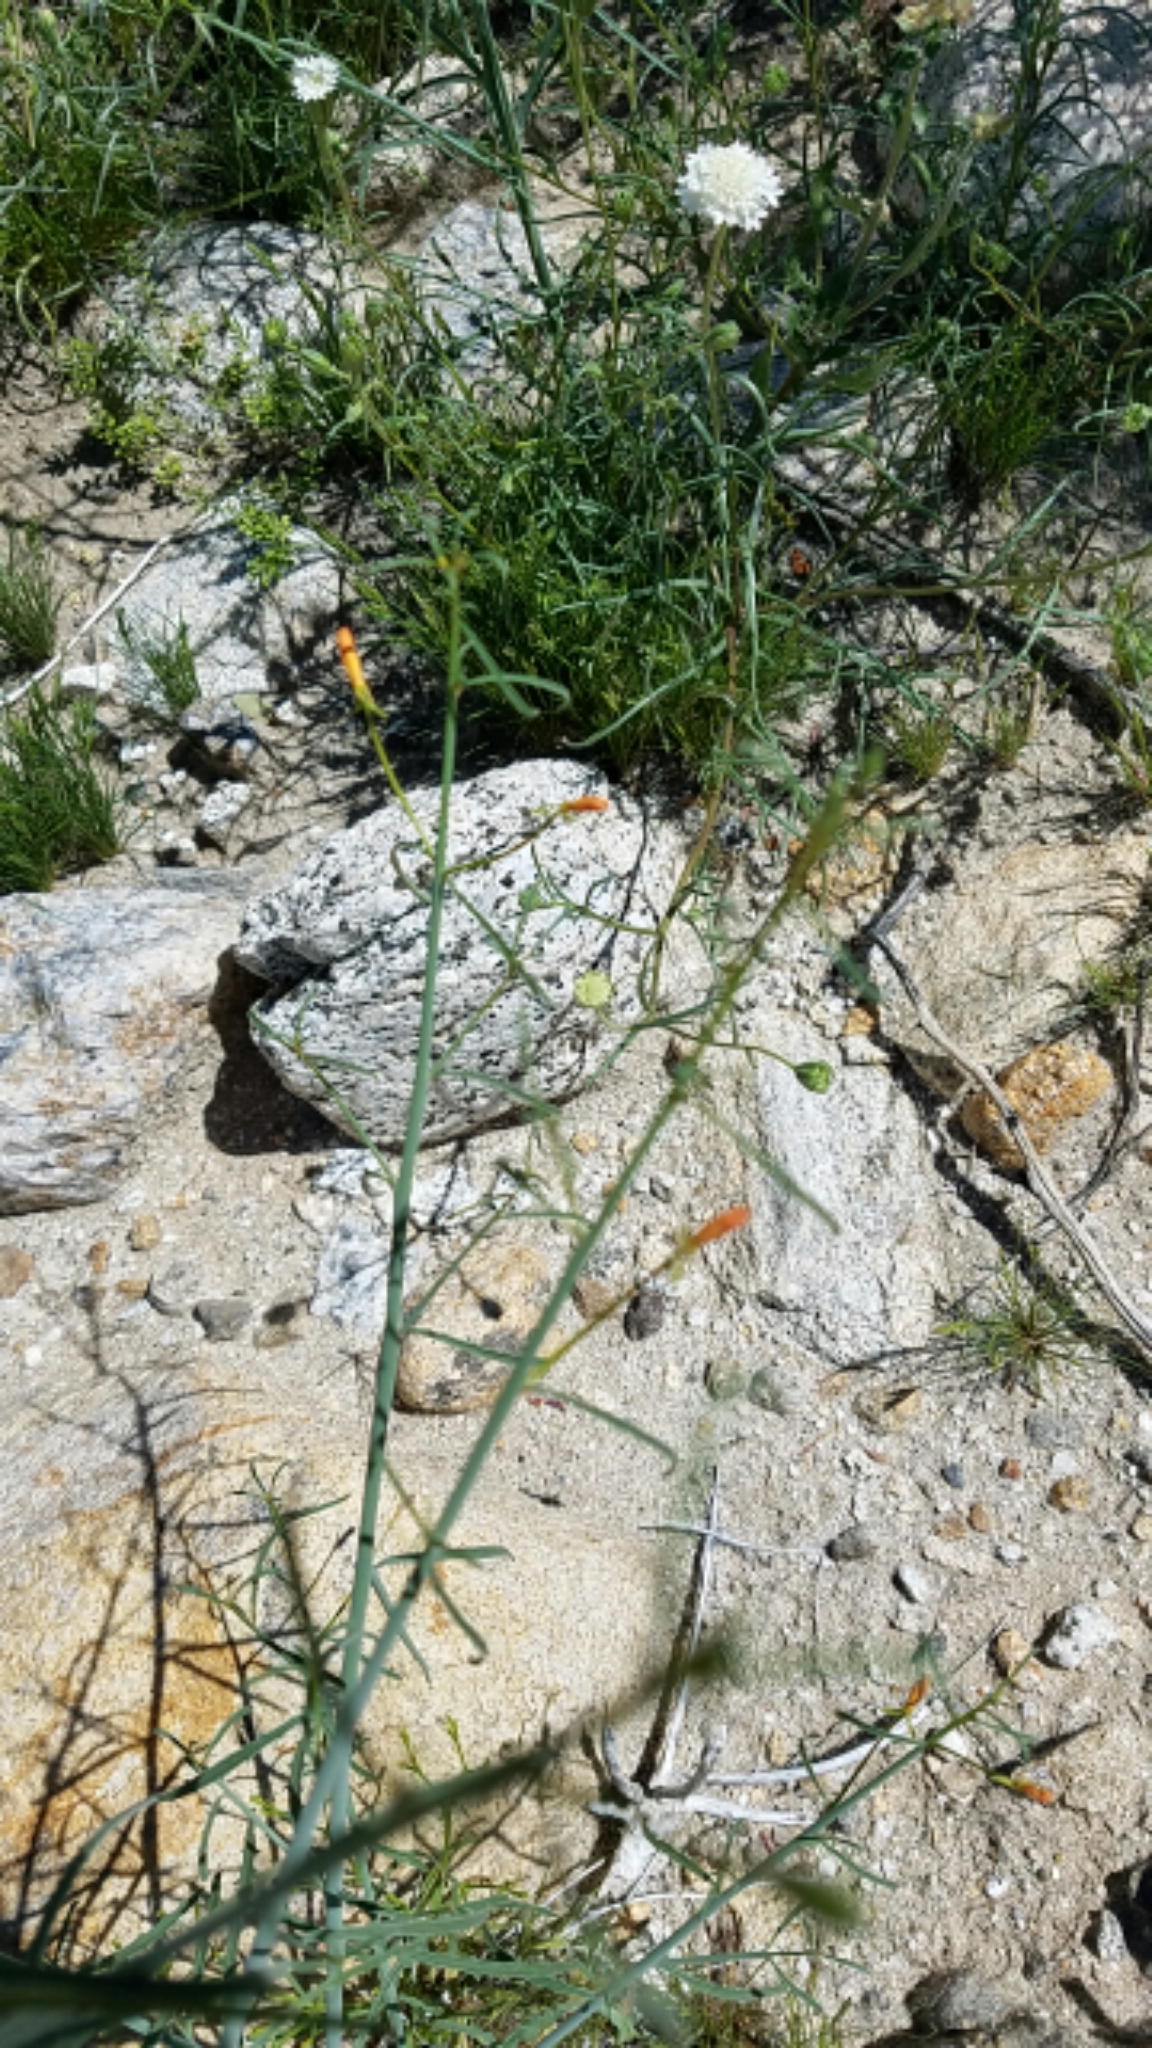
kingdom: Plantae
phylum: Tracheophyta
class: Magnoliopsida
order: Myrtales
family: Onagraceae
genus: Eulobus
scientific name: Eulobus californicus
